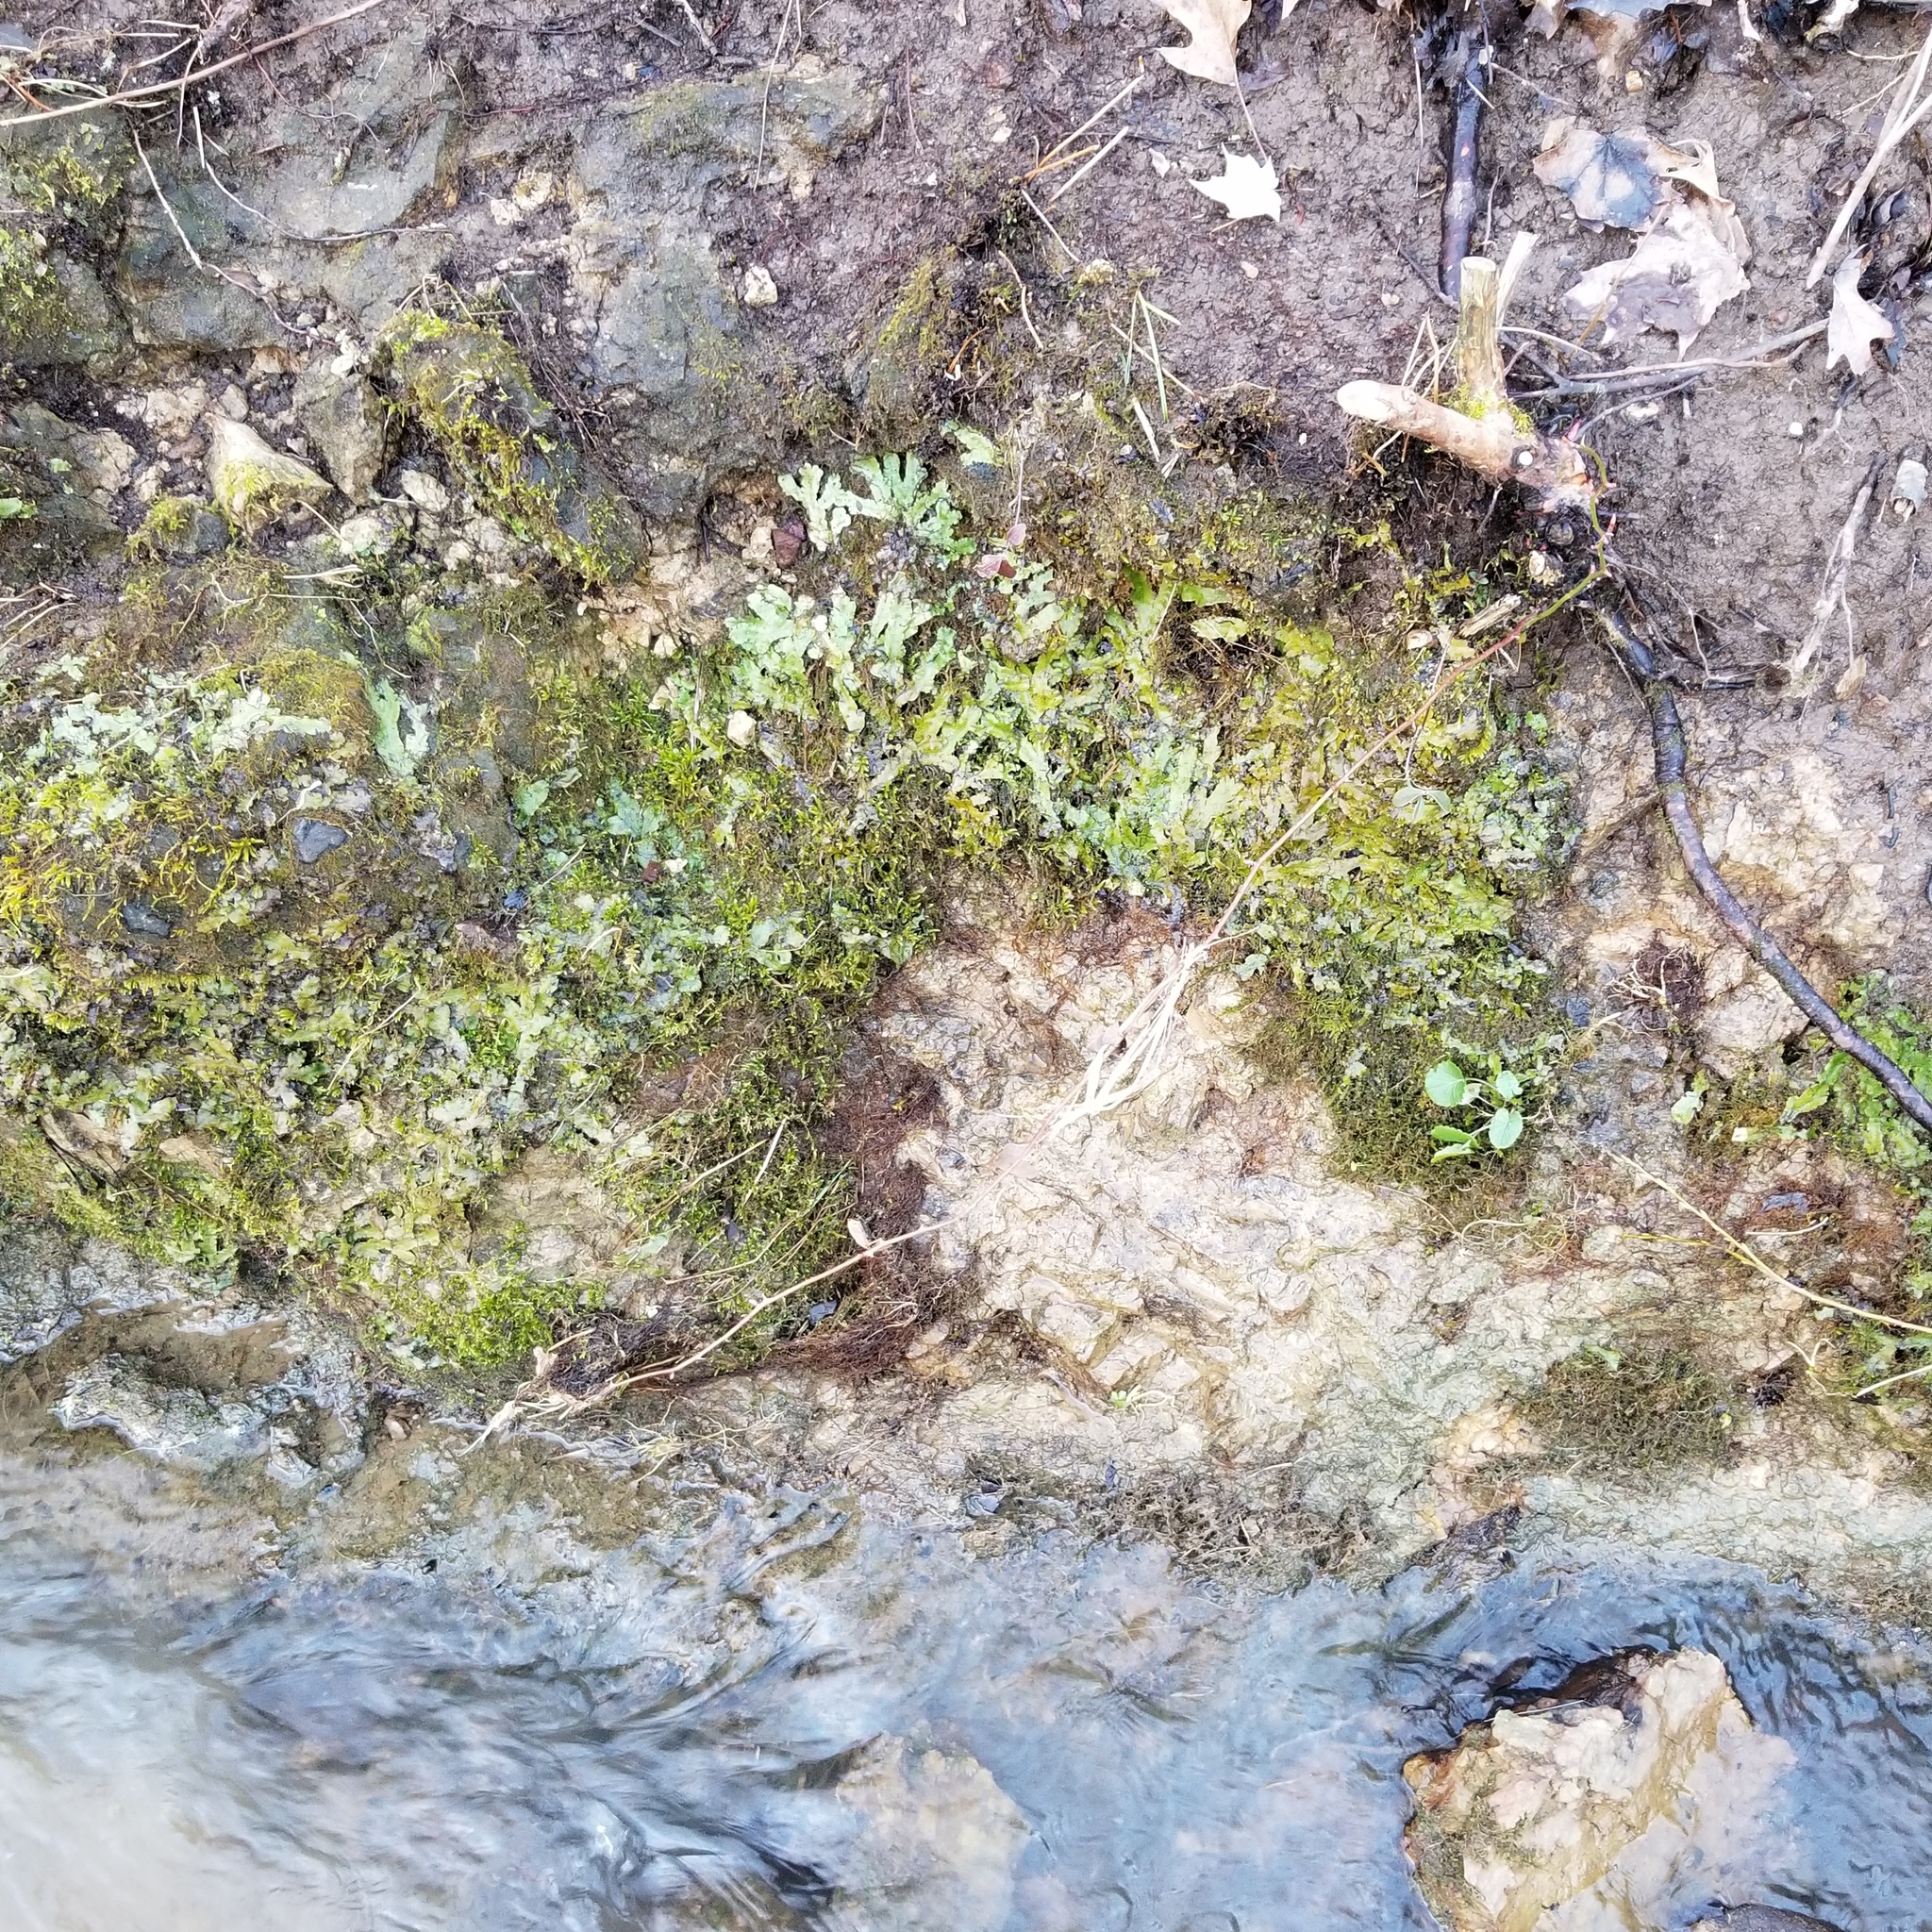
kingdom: Plantae
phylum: Marchantiophyta
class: Marchantiopsida
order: Marchantiales
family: Conocephalaceae
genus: Conocephalum
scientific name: Conocephalum salebrosum
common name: Cat-tongue liverwort
